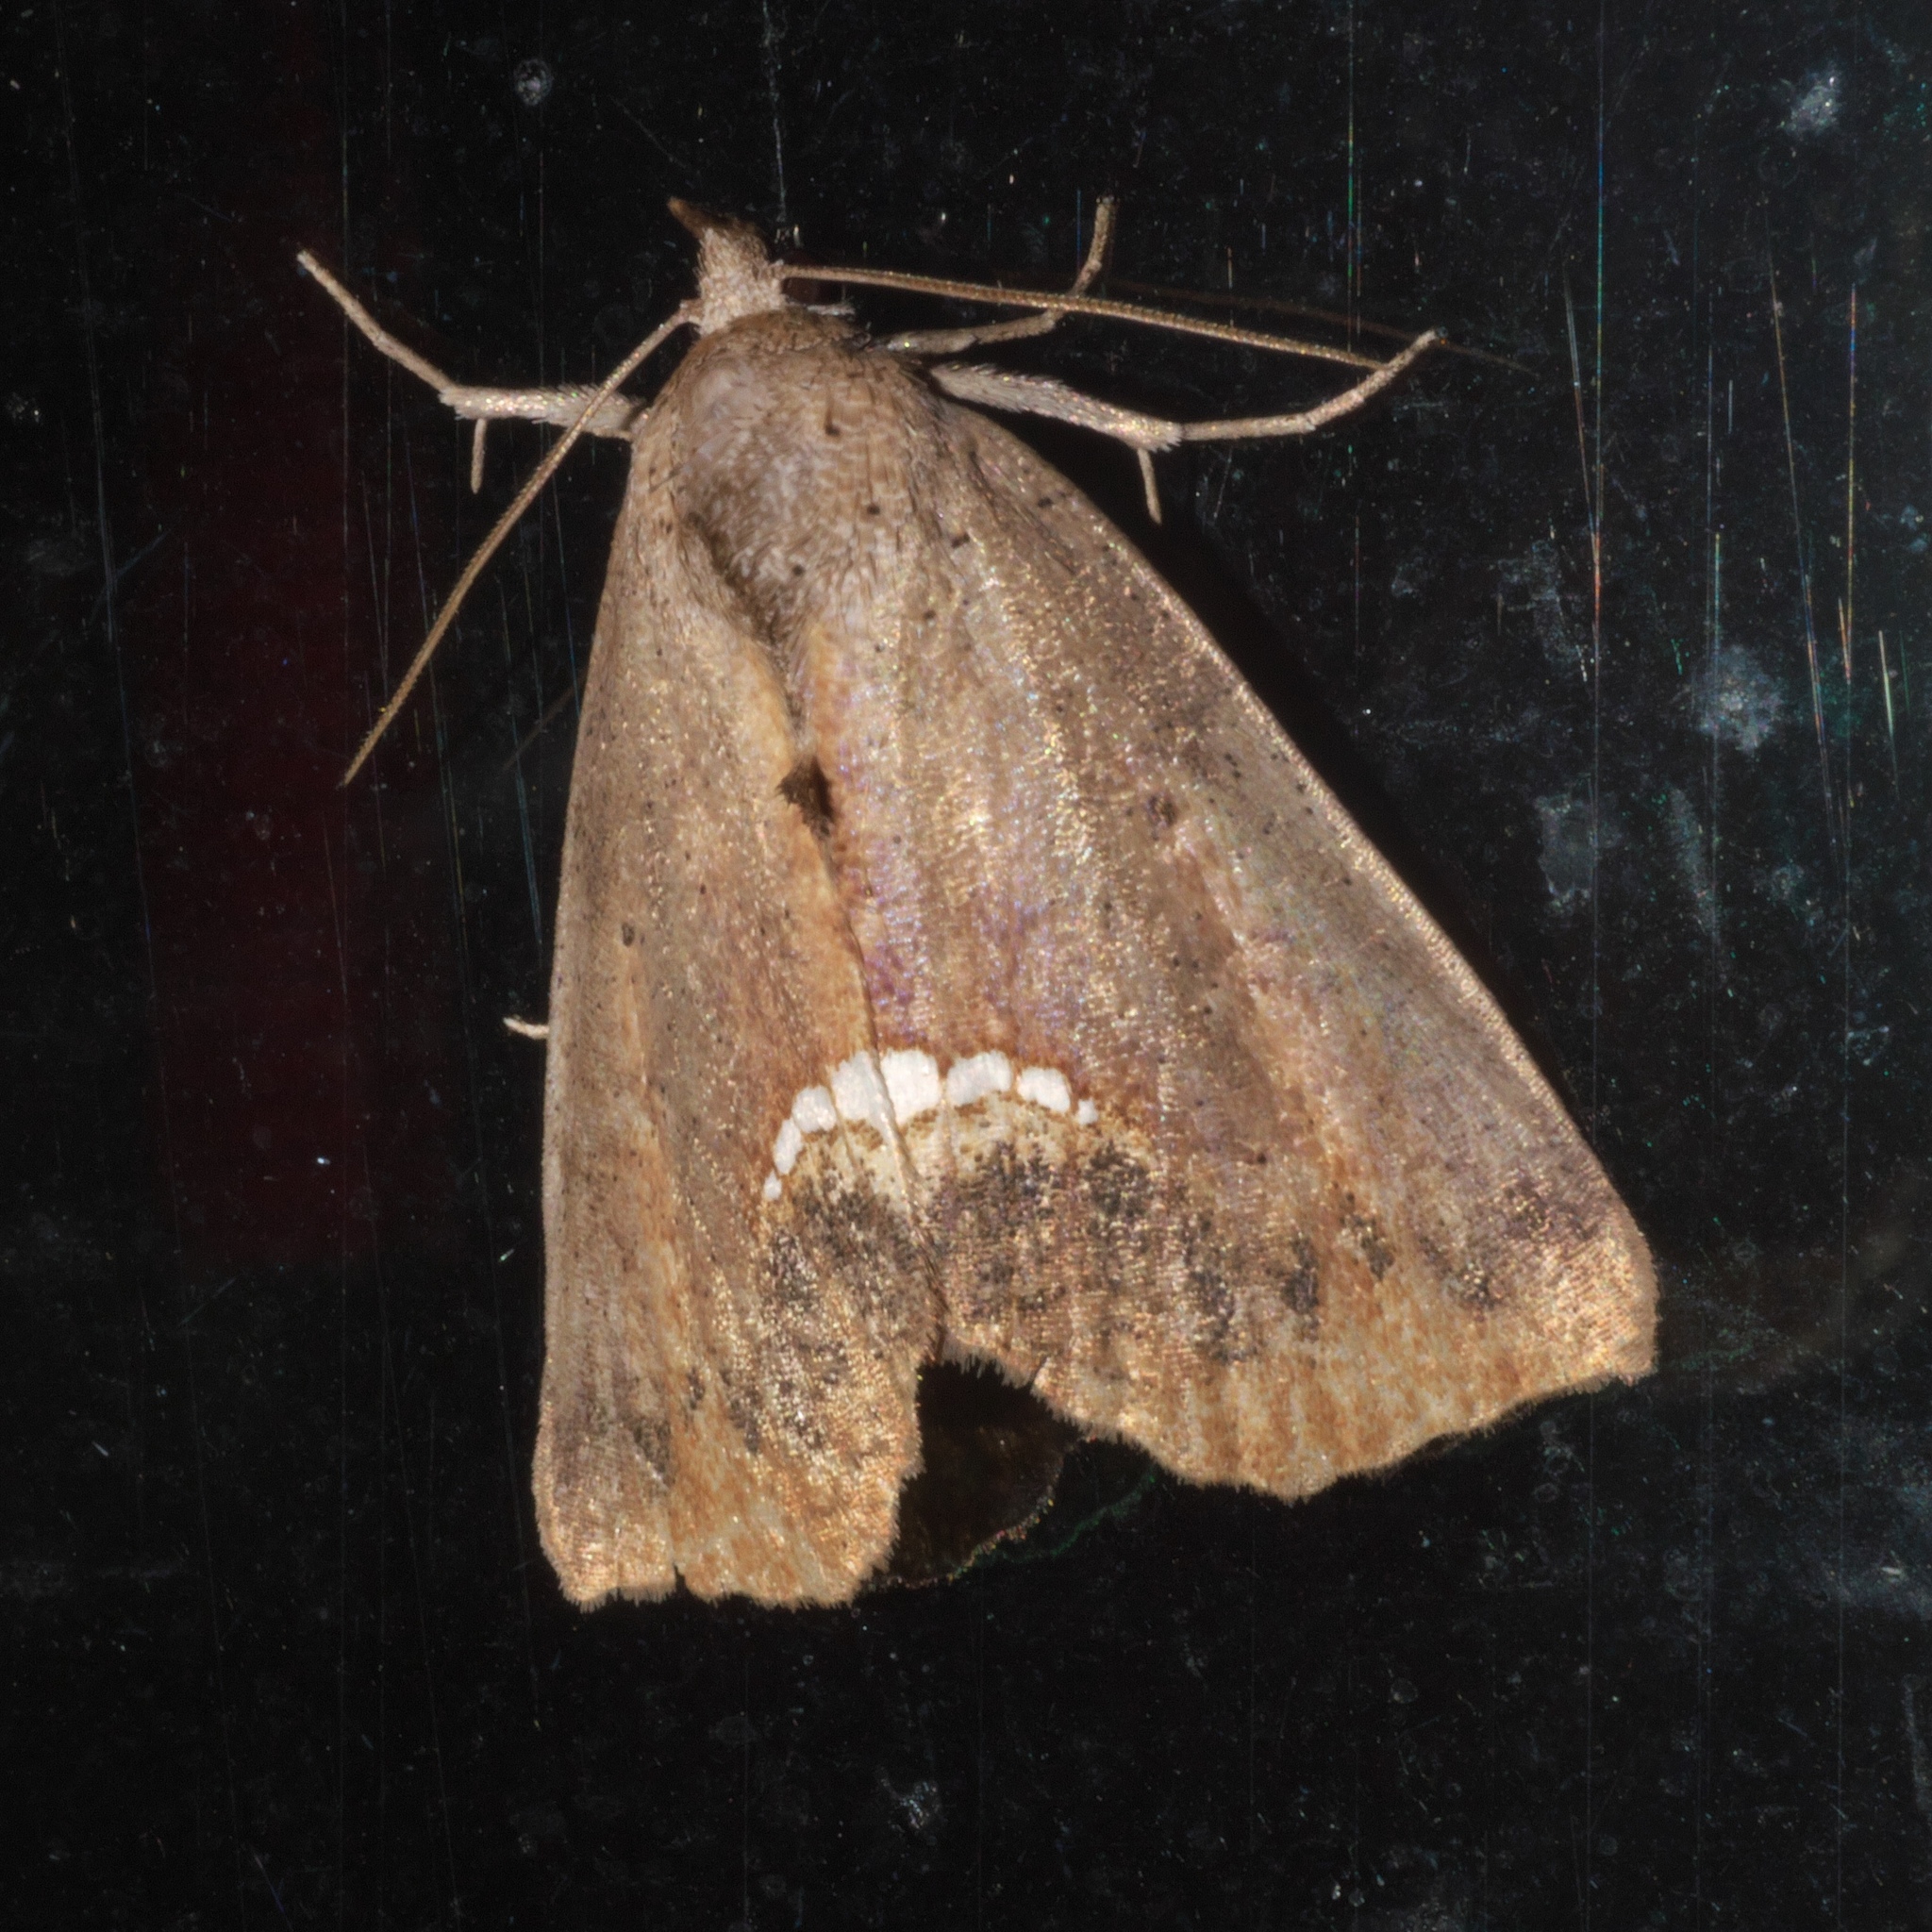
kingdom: Animalia
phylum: Arthropoda
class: Insecta
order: Lepidoptera
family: Erebidae
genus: Hypsoropha
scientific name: Hypsoropha hormos
